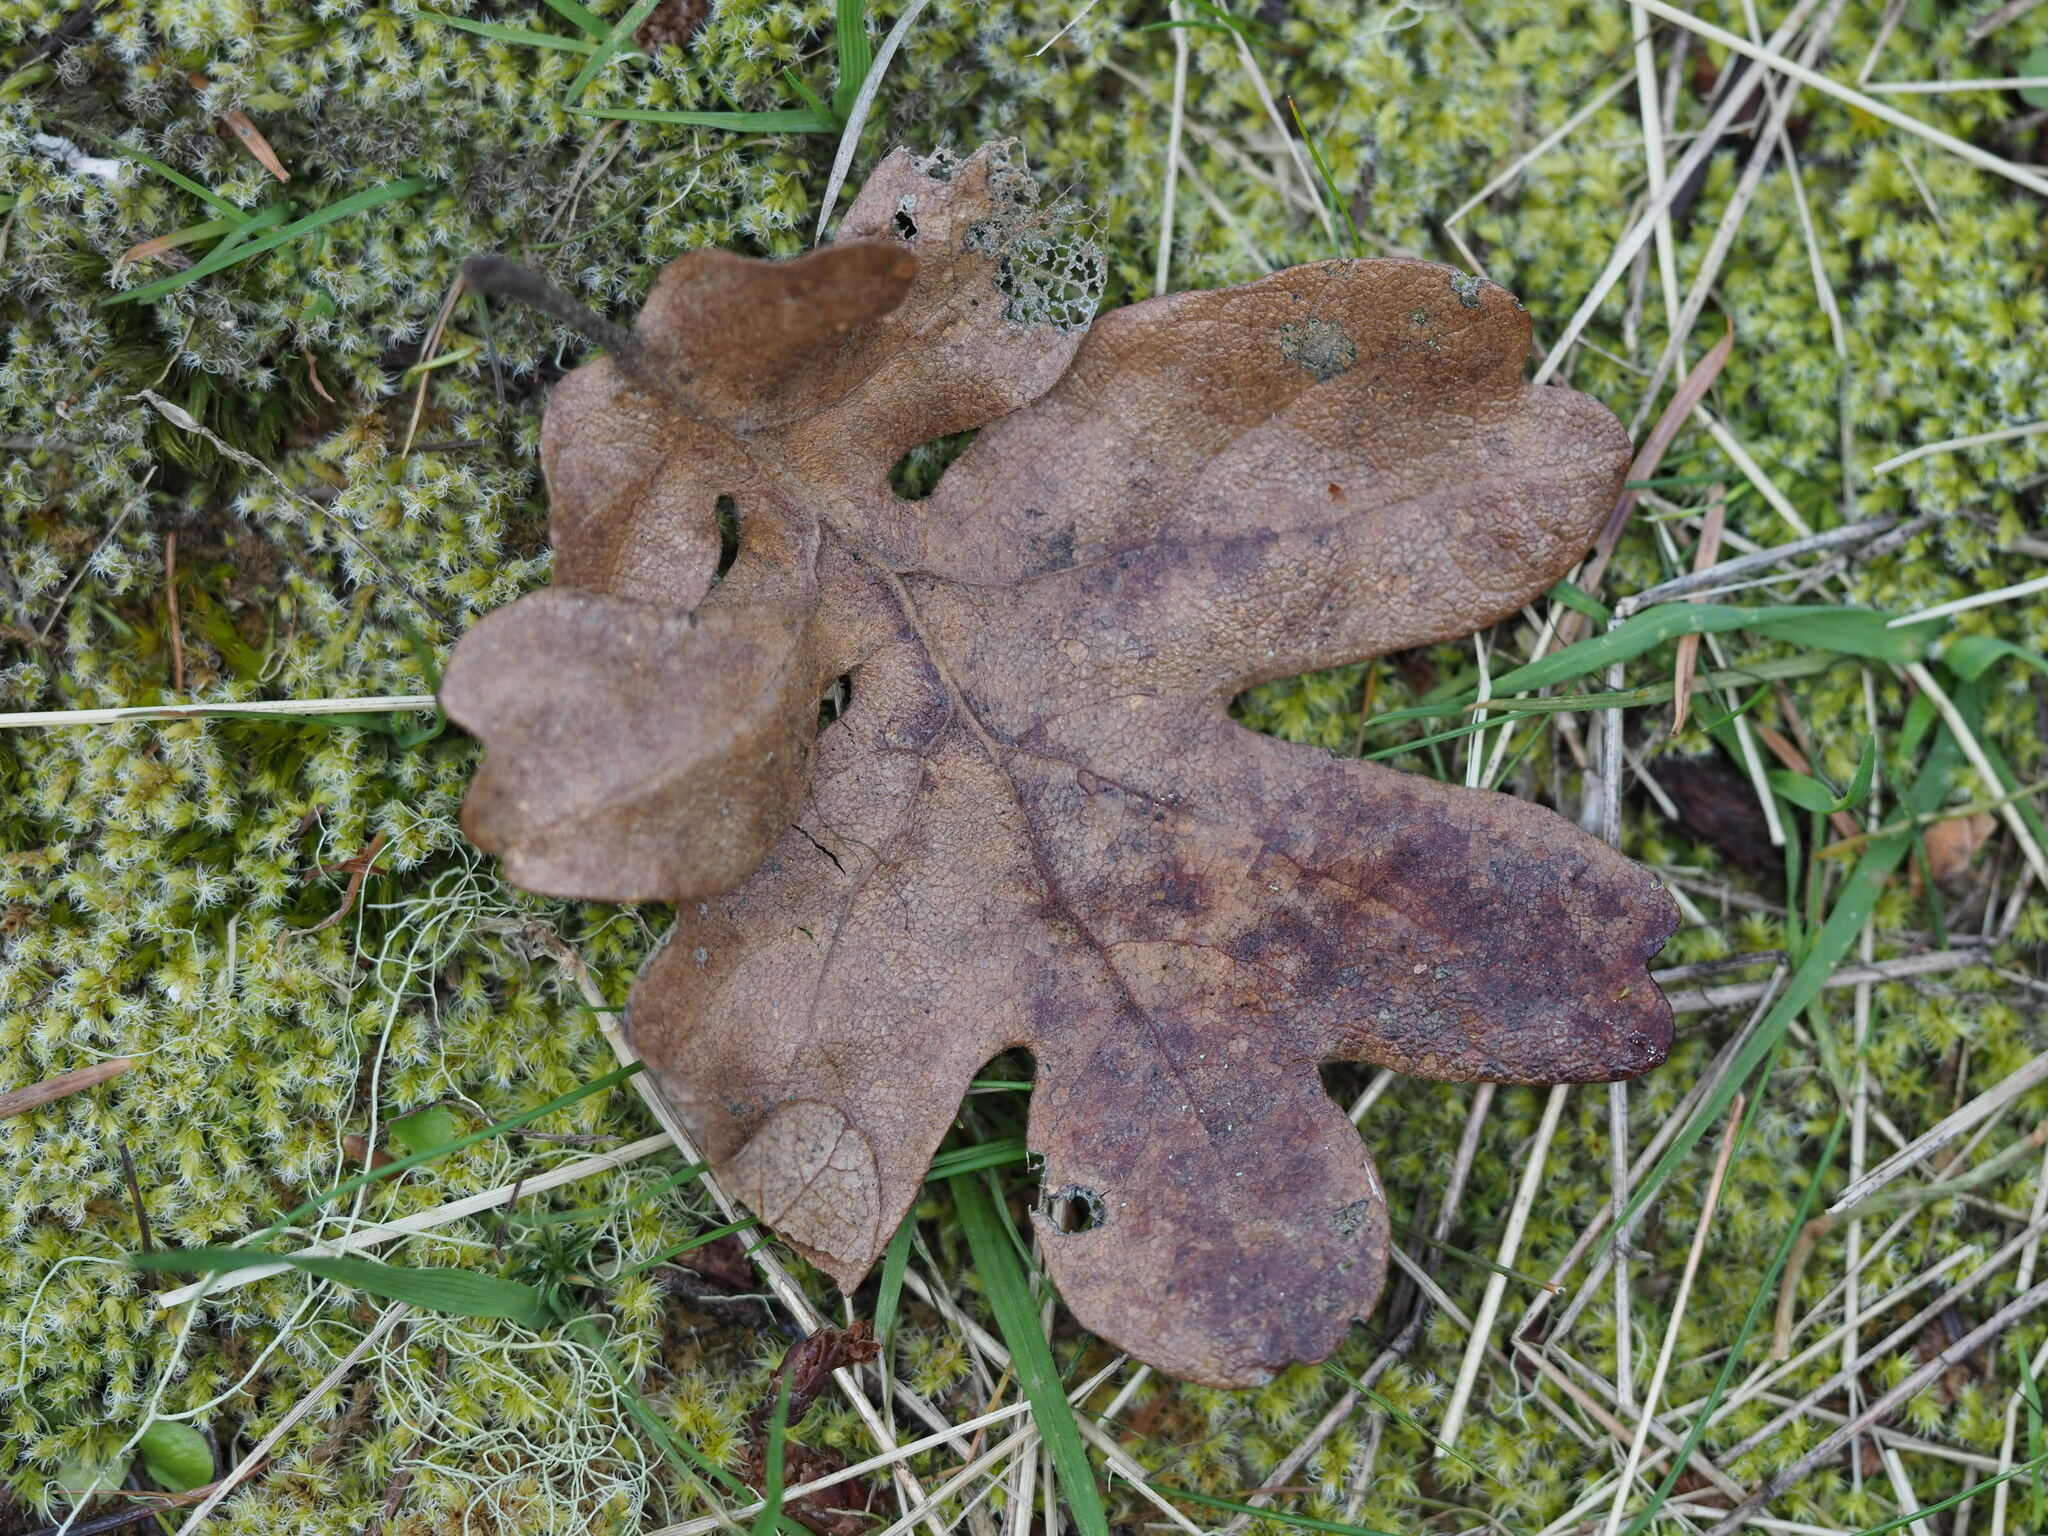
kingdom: Plantae
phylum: Tracheophyta
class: Magnoliopsida
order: Fagales
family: Fagaceae
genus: Quercus
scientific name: Quercus garryana
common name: Garry oak
